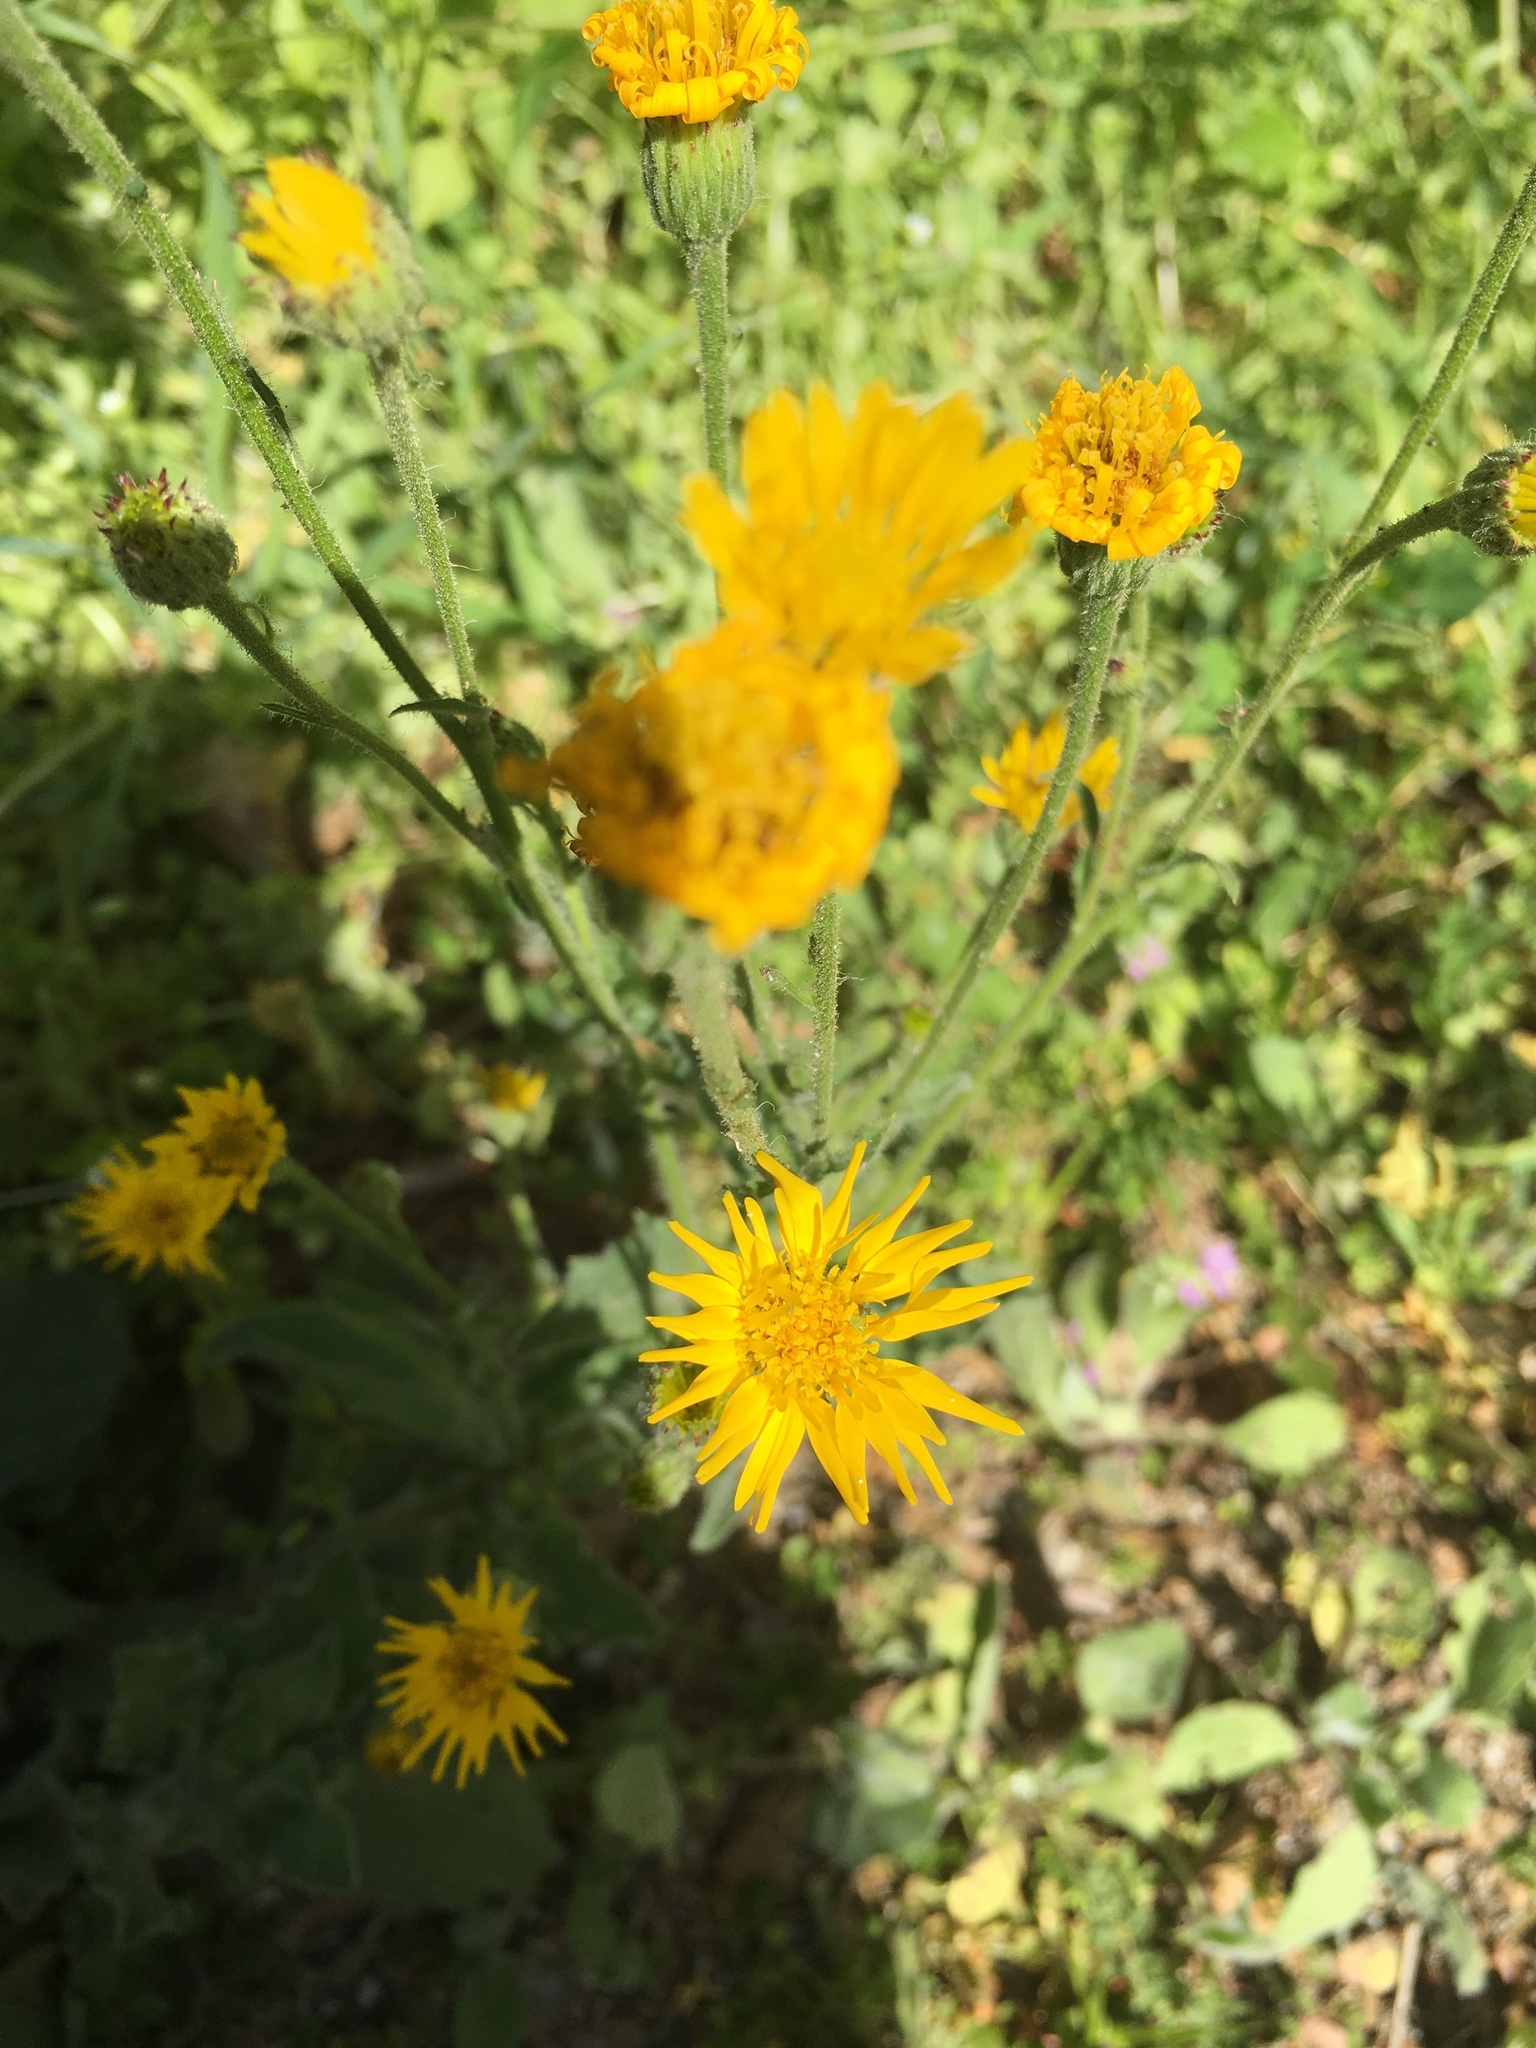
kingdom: Plantae
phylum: Tracheophyta
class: Magnoliopsida
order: Asterales
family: Asteraceae
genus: Heterotheca
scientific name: Heterotheca grandiflora
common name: Telegraphweed
